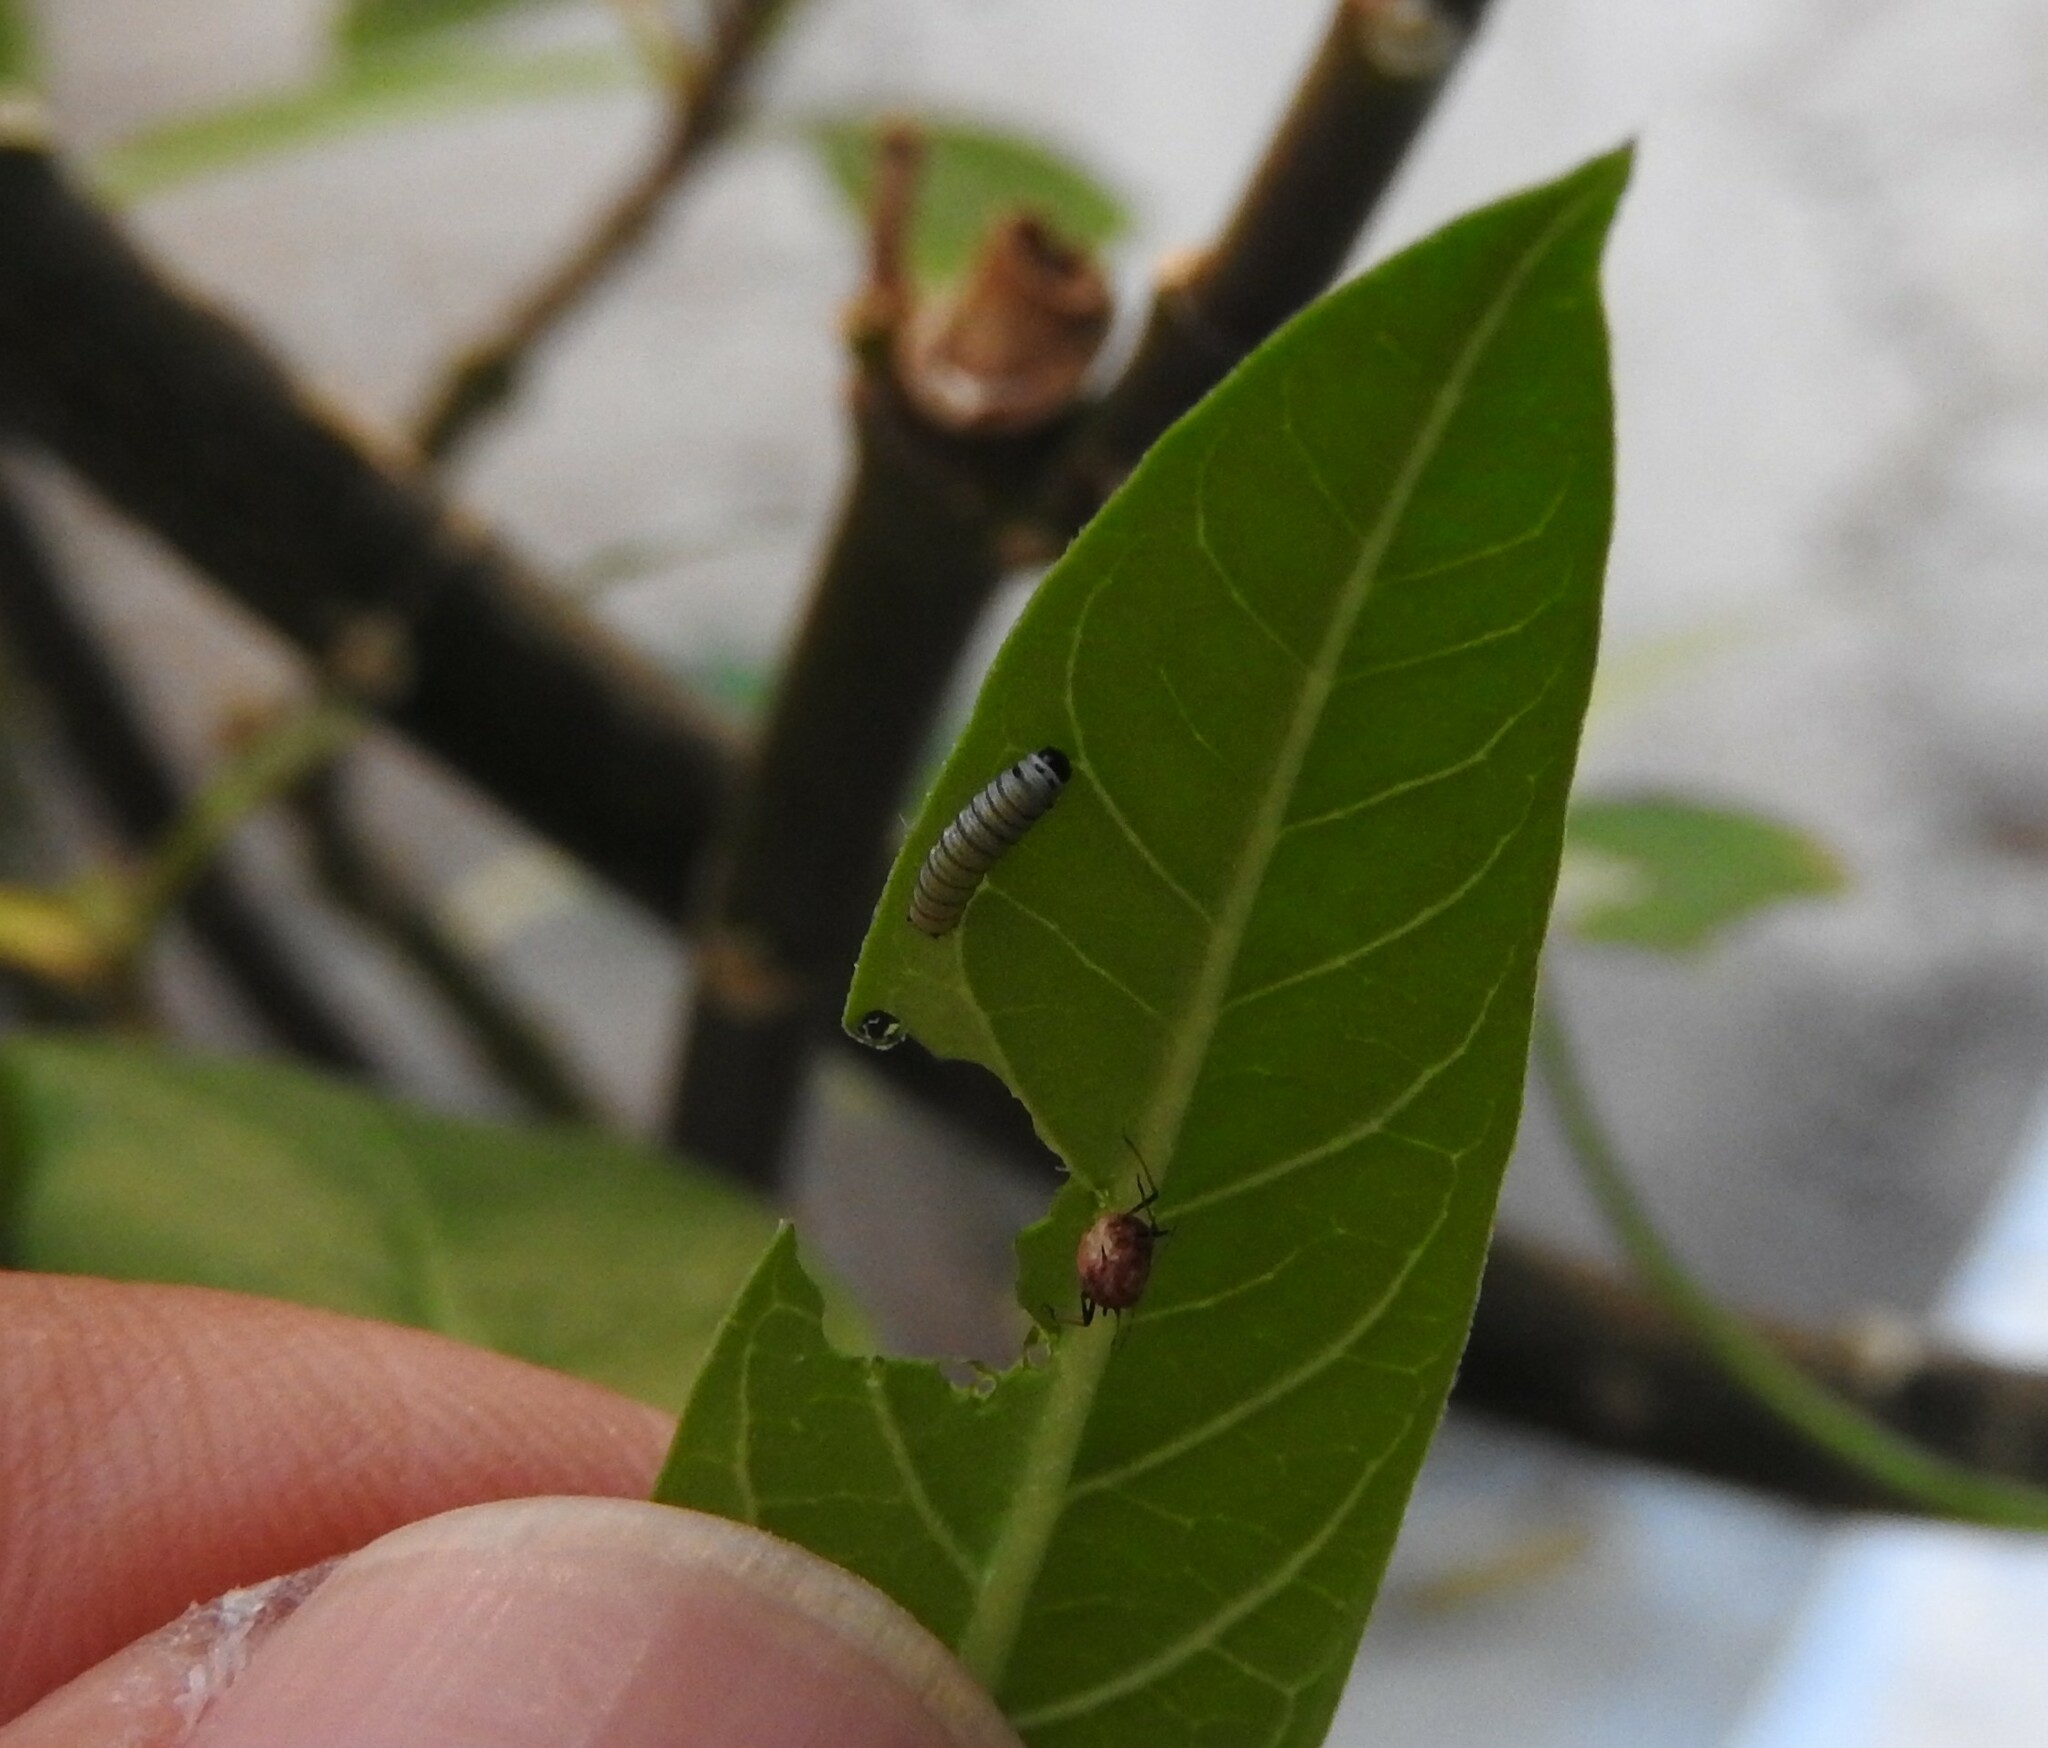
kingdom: Animalia
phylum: Arthropoda
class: Insecta
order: Lepidoptera
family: Nymphalidae
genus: Danaus
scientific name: Danaus plexippus
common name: Monarch
